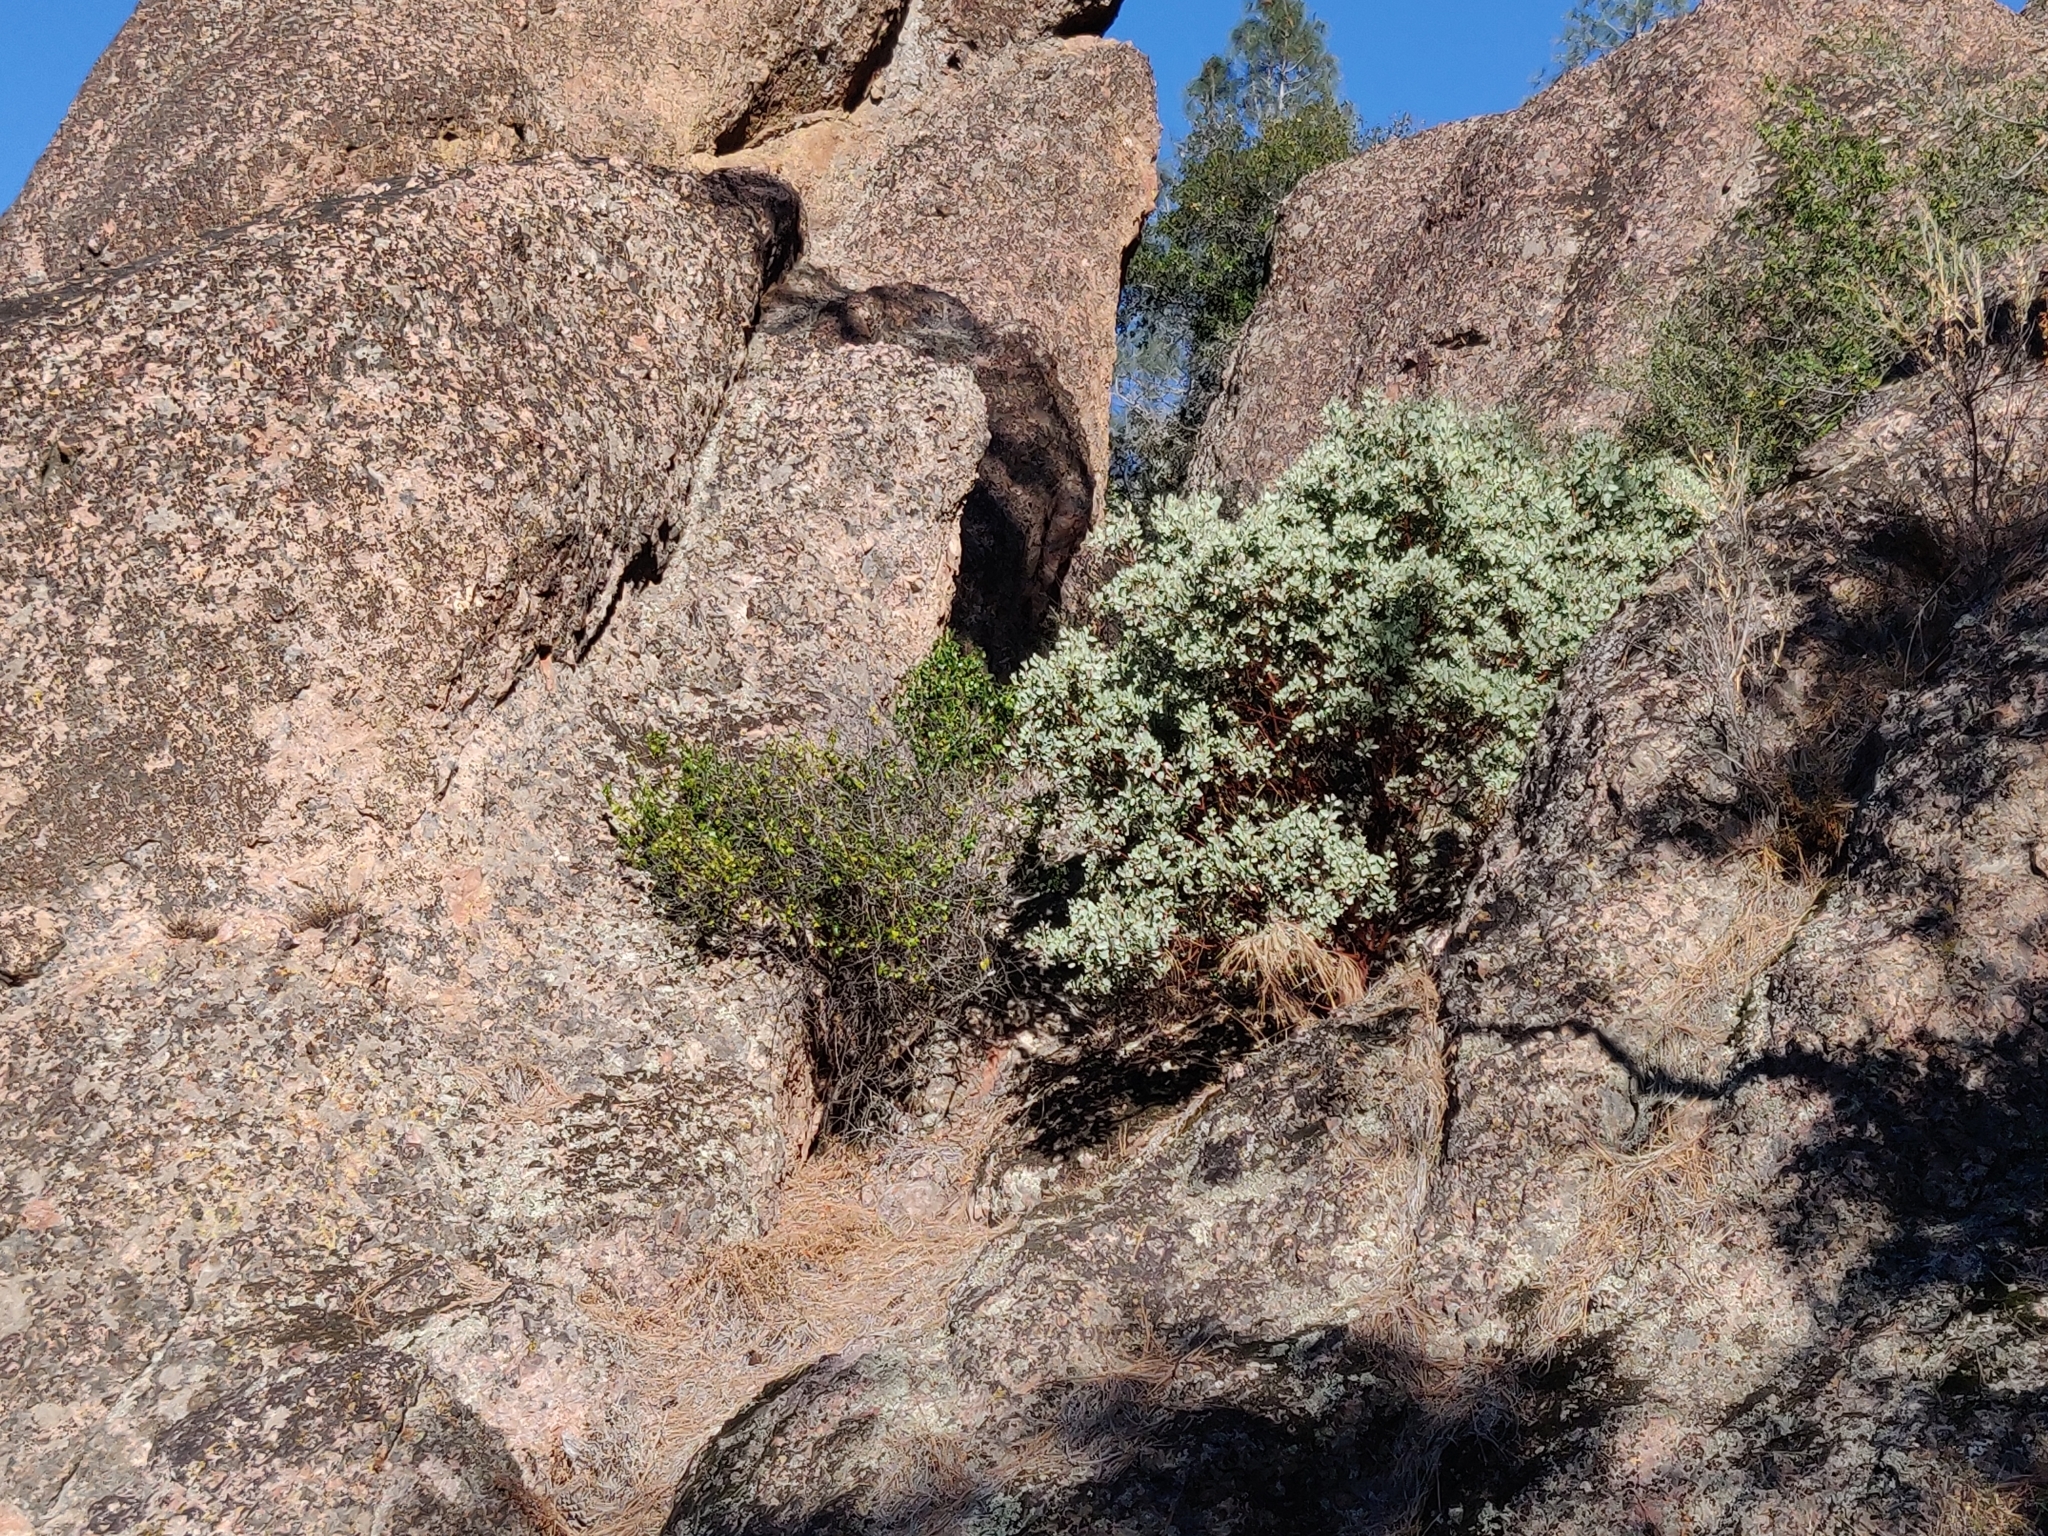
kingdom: Plantae
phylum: Tracheophyta
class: Magnoliopsida
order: Ericales
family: Ericaceae
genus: Arctostaphylos
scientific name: Arctostaphylos glauca
